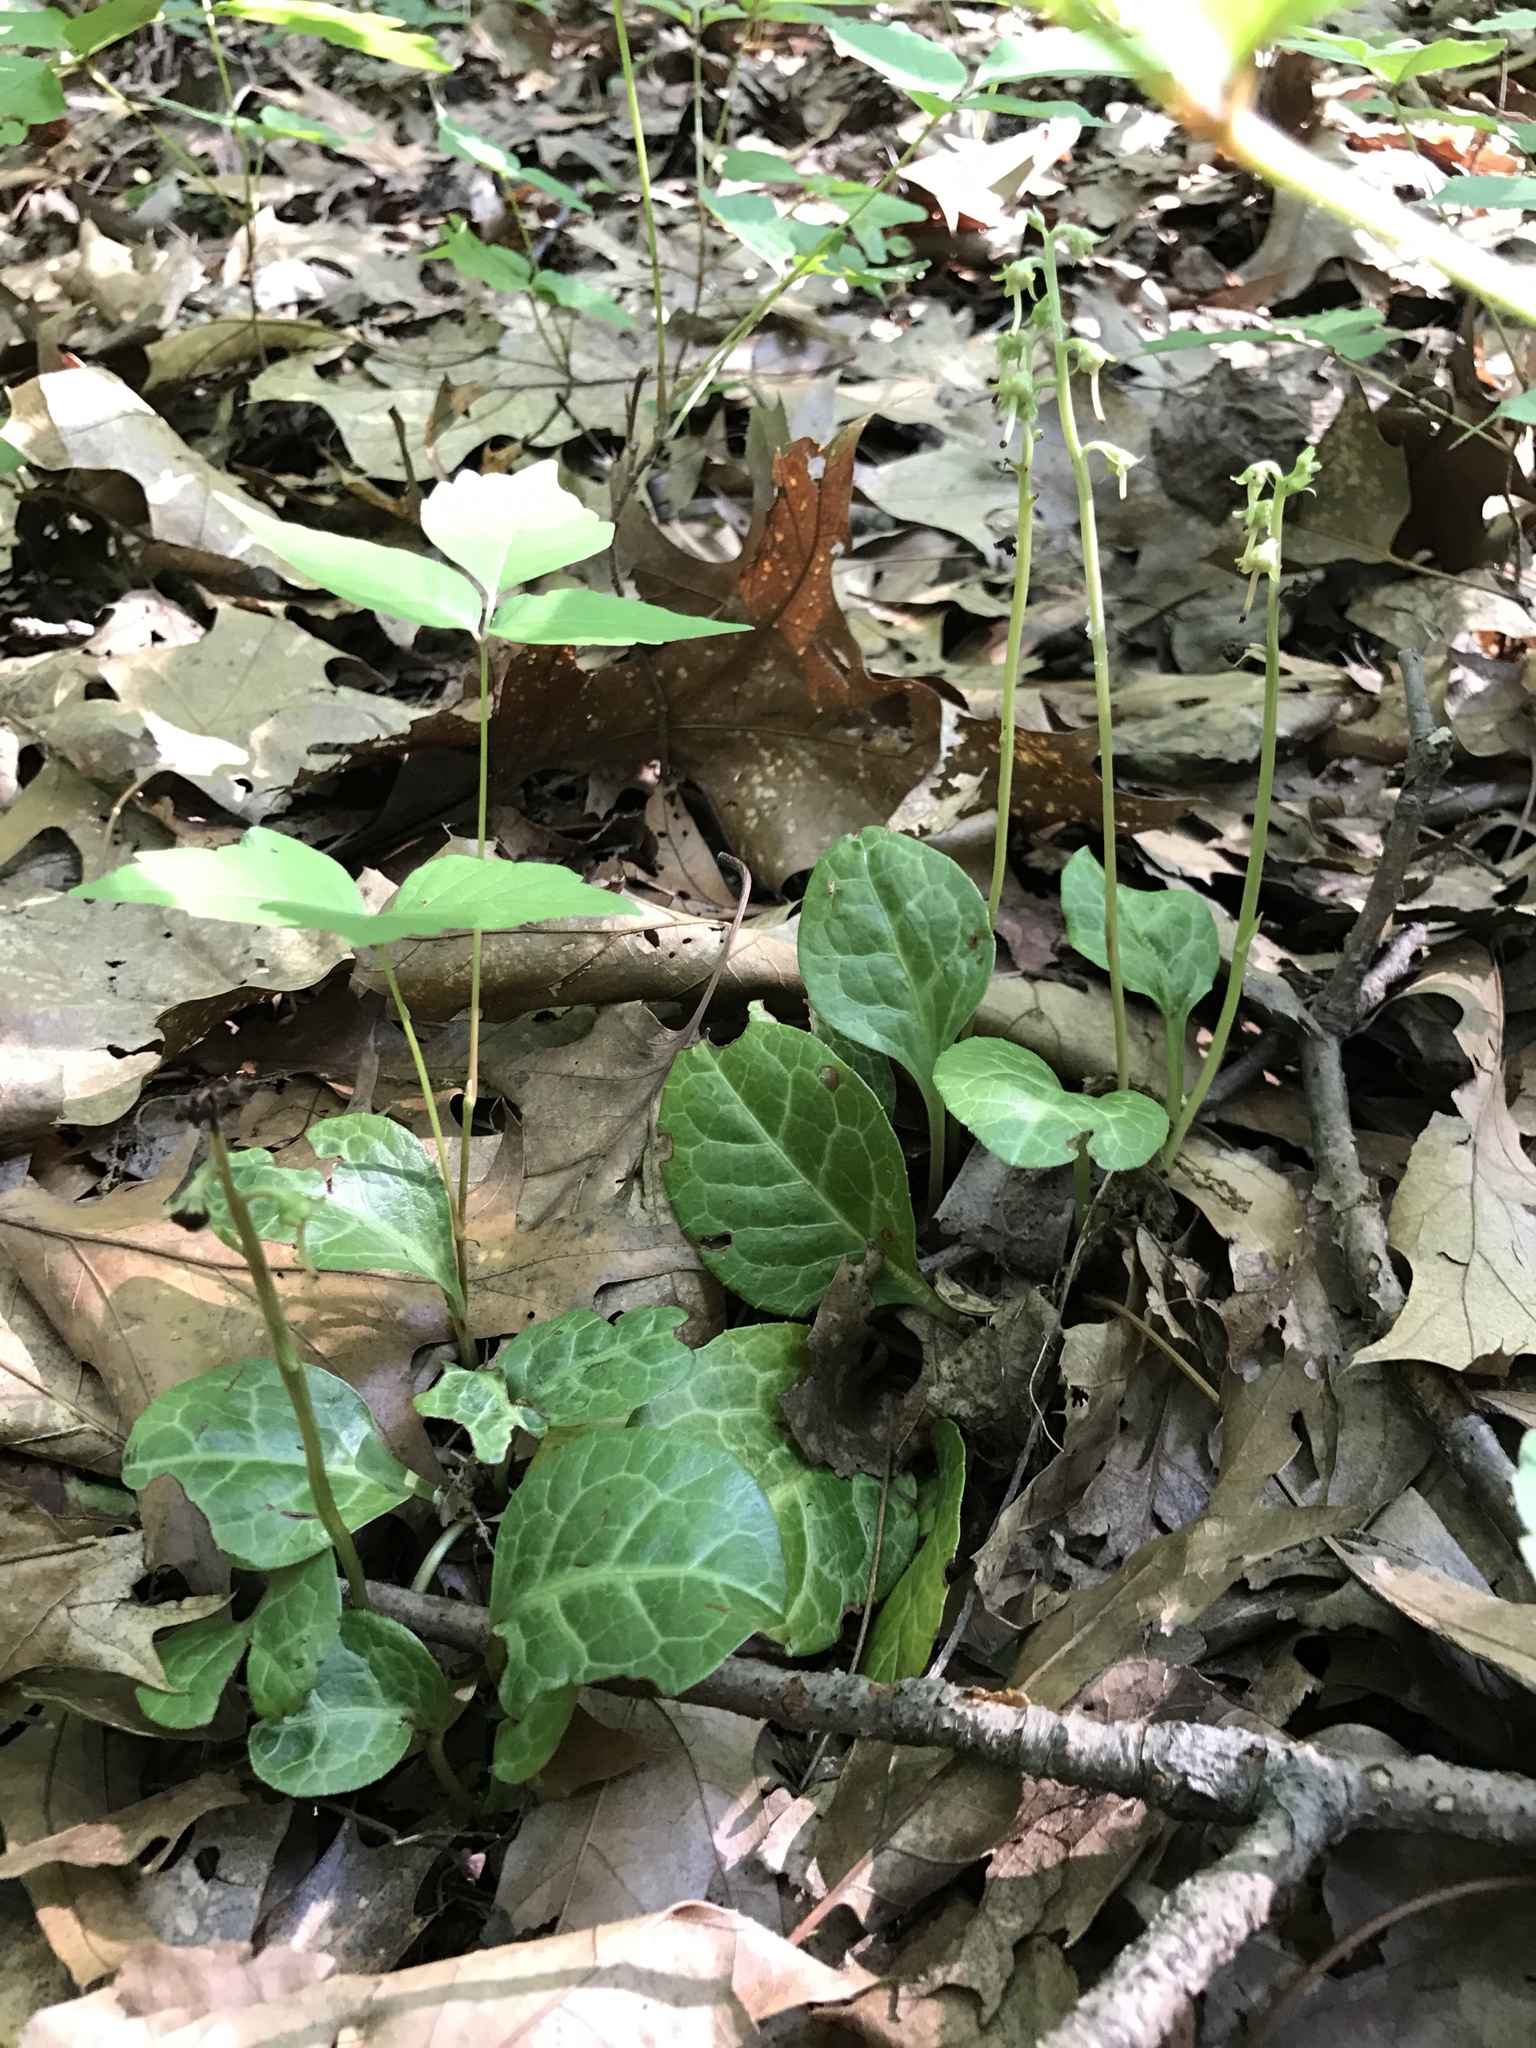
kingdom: Plantae
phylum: Tracheophyta
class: Magnoliopsida
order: Ericales
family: Ericaceae
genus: Pyrola
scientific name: Pyrola americana
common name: American wintergreen
